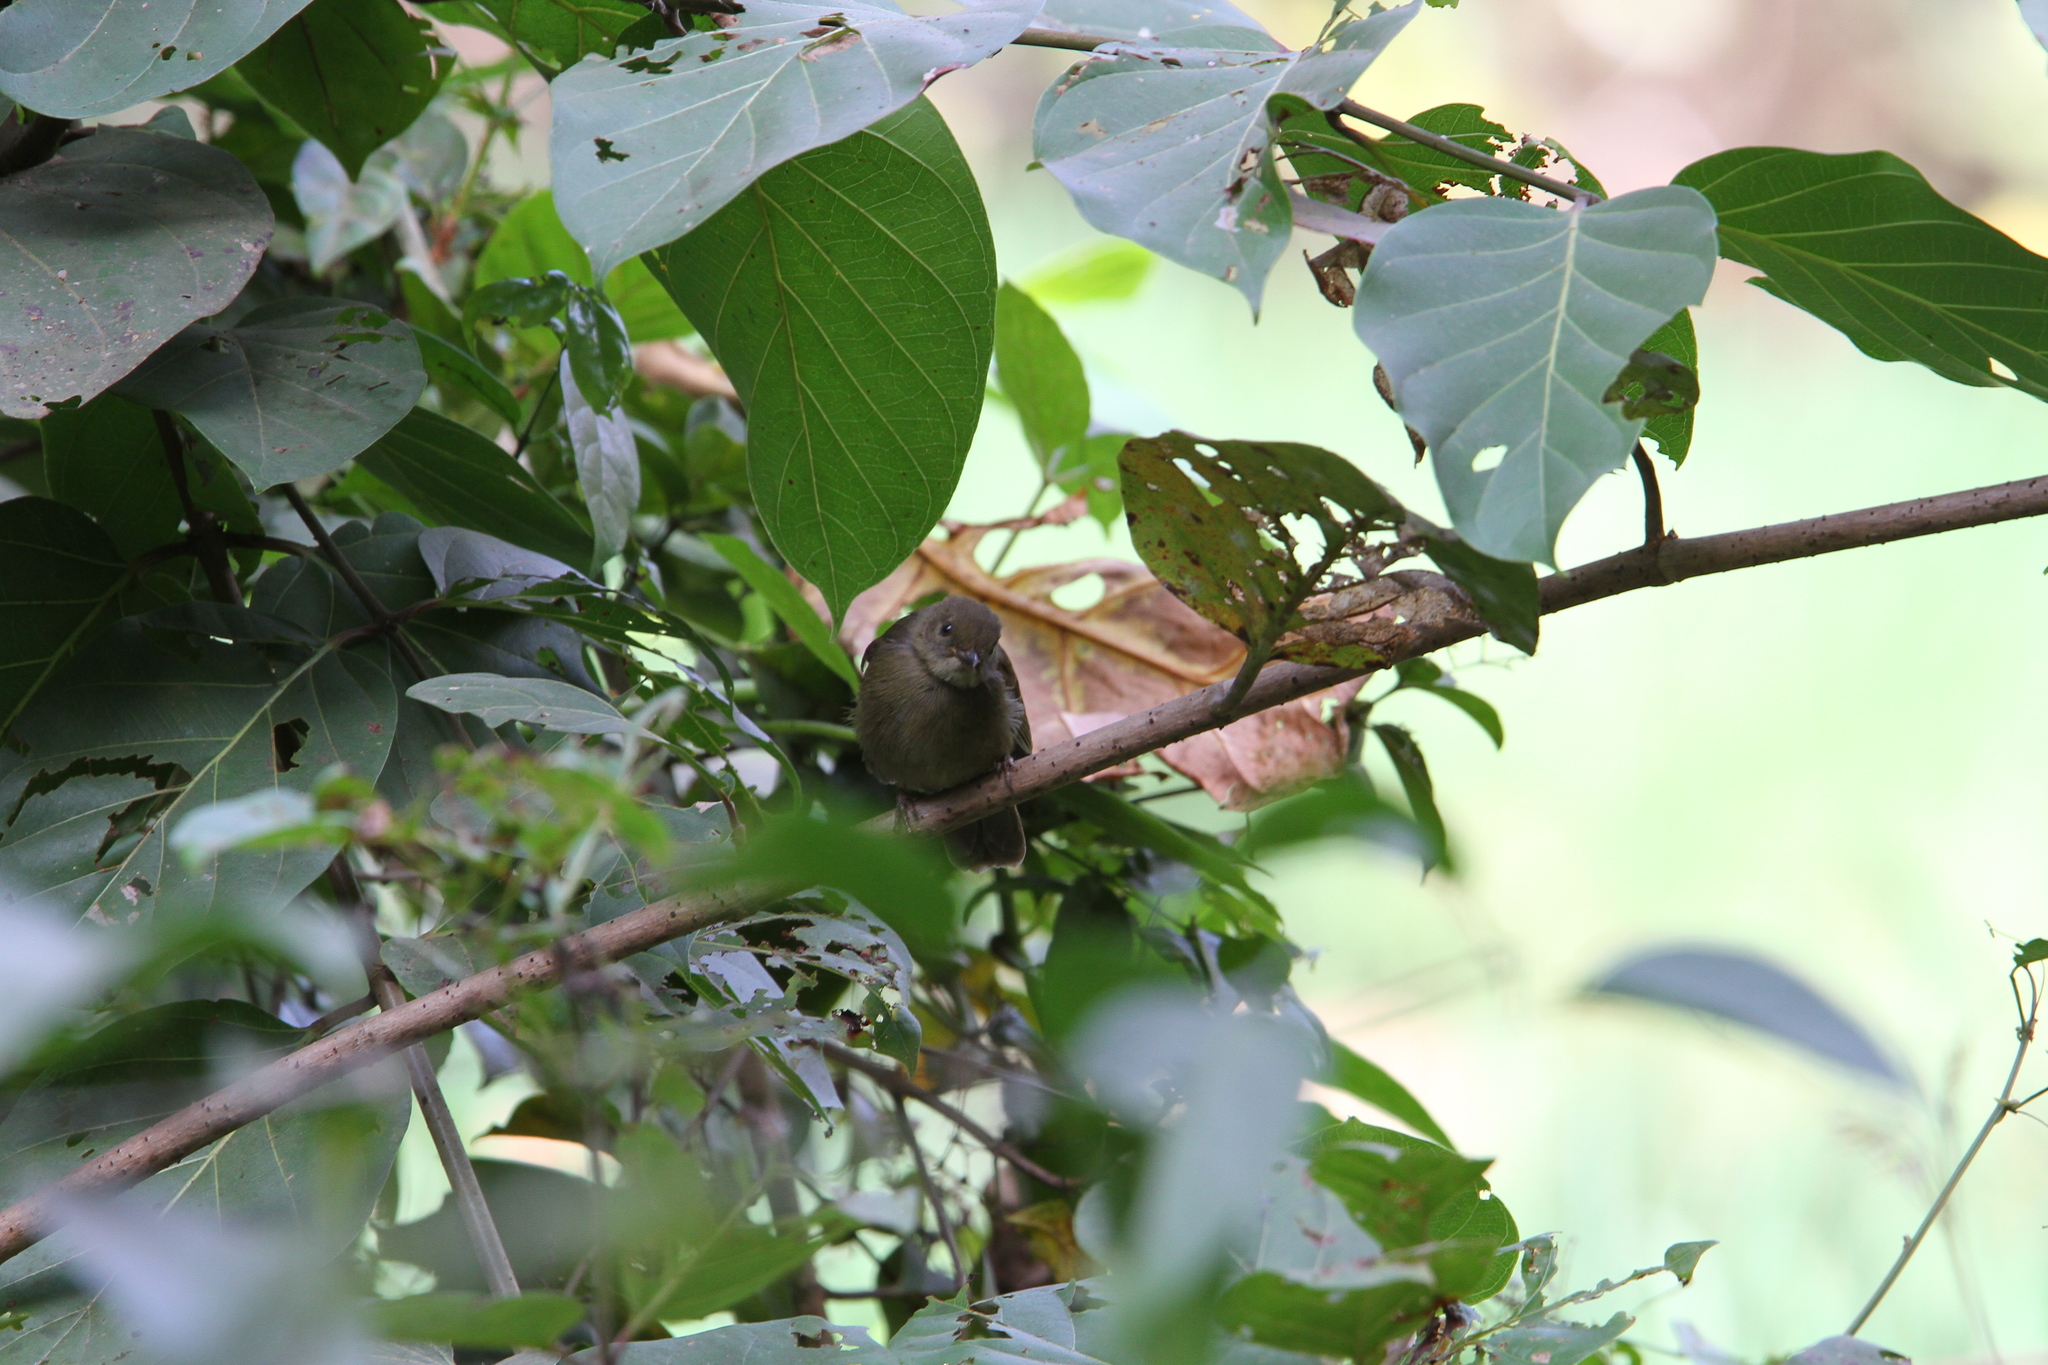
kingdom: Animalia
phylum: Chordata
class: Aves
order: Passeriformes
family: Pycnonotidae
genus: Eurillas
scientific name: Eurillas virens
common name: Little greenbul
